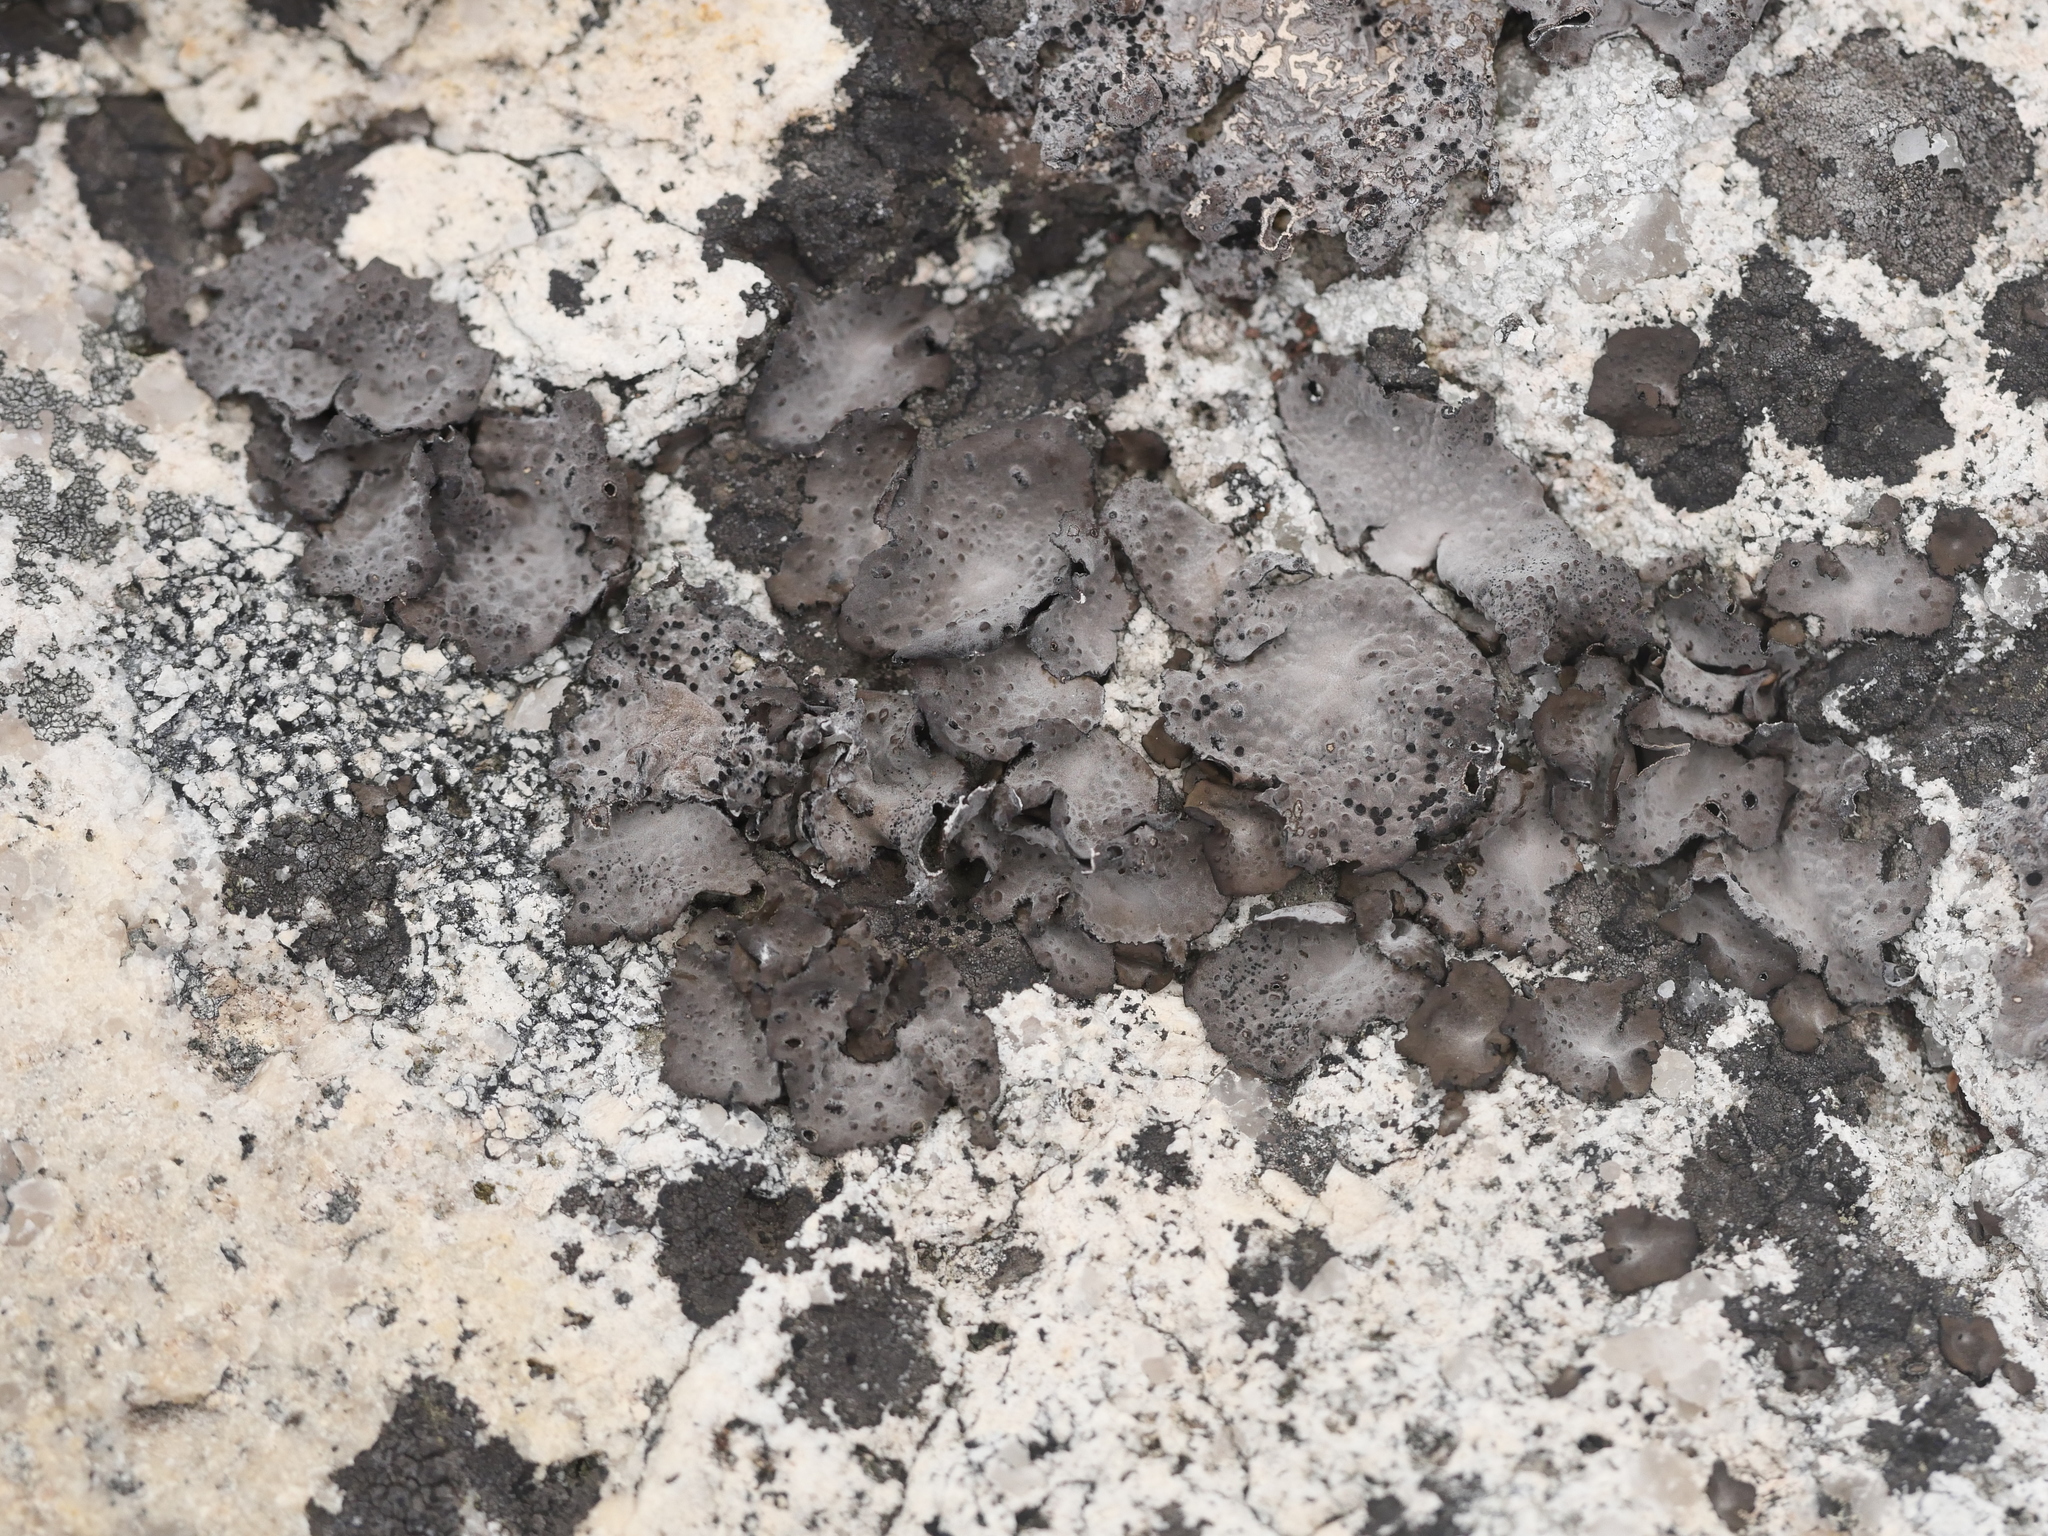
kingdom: Fungi
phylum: Ascomycota
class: Lecanoromycetes
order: Umbilicariales
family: Umbilicariaceae
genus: Lasallia
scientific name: Lasallia papulosa
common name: Common toadskin lichen
